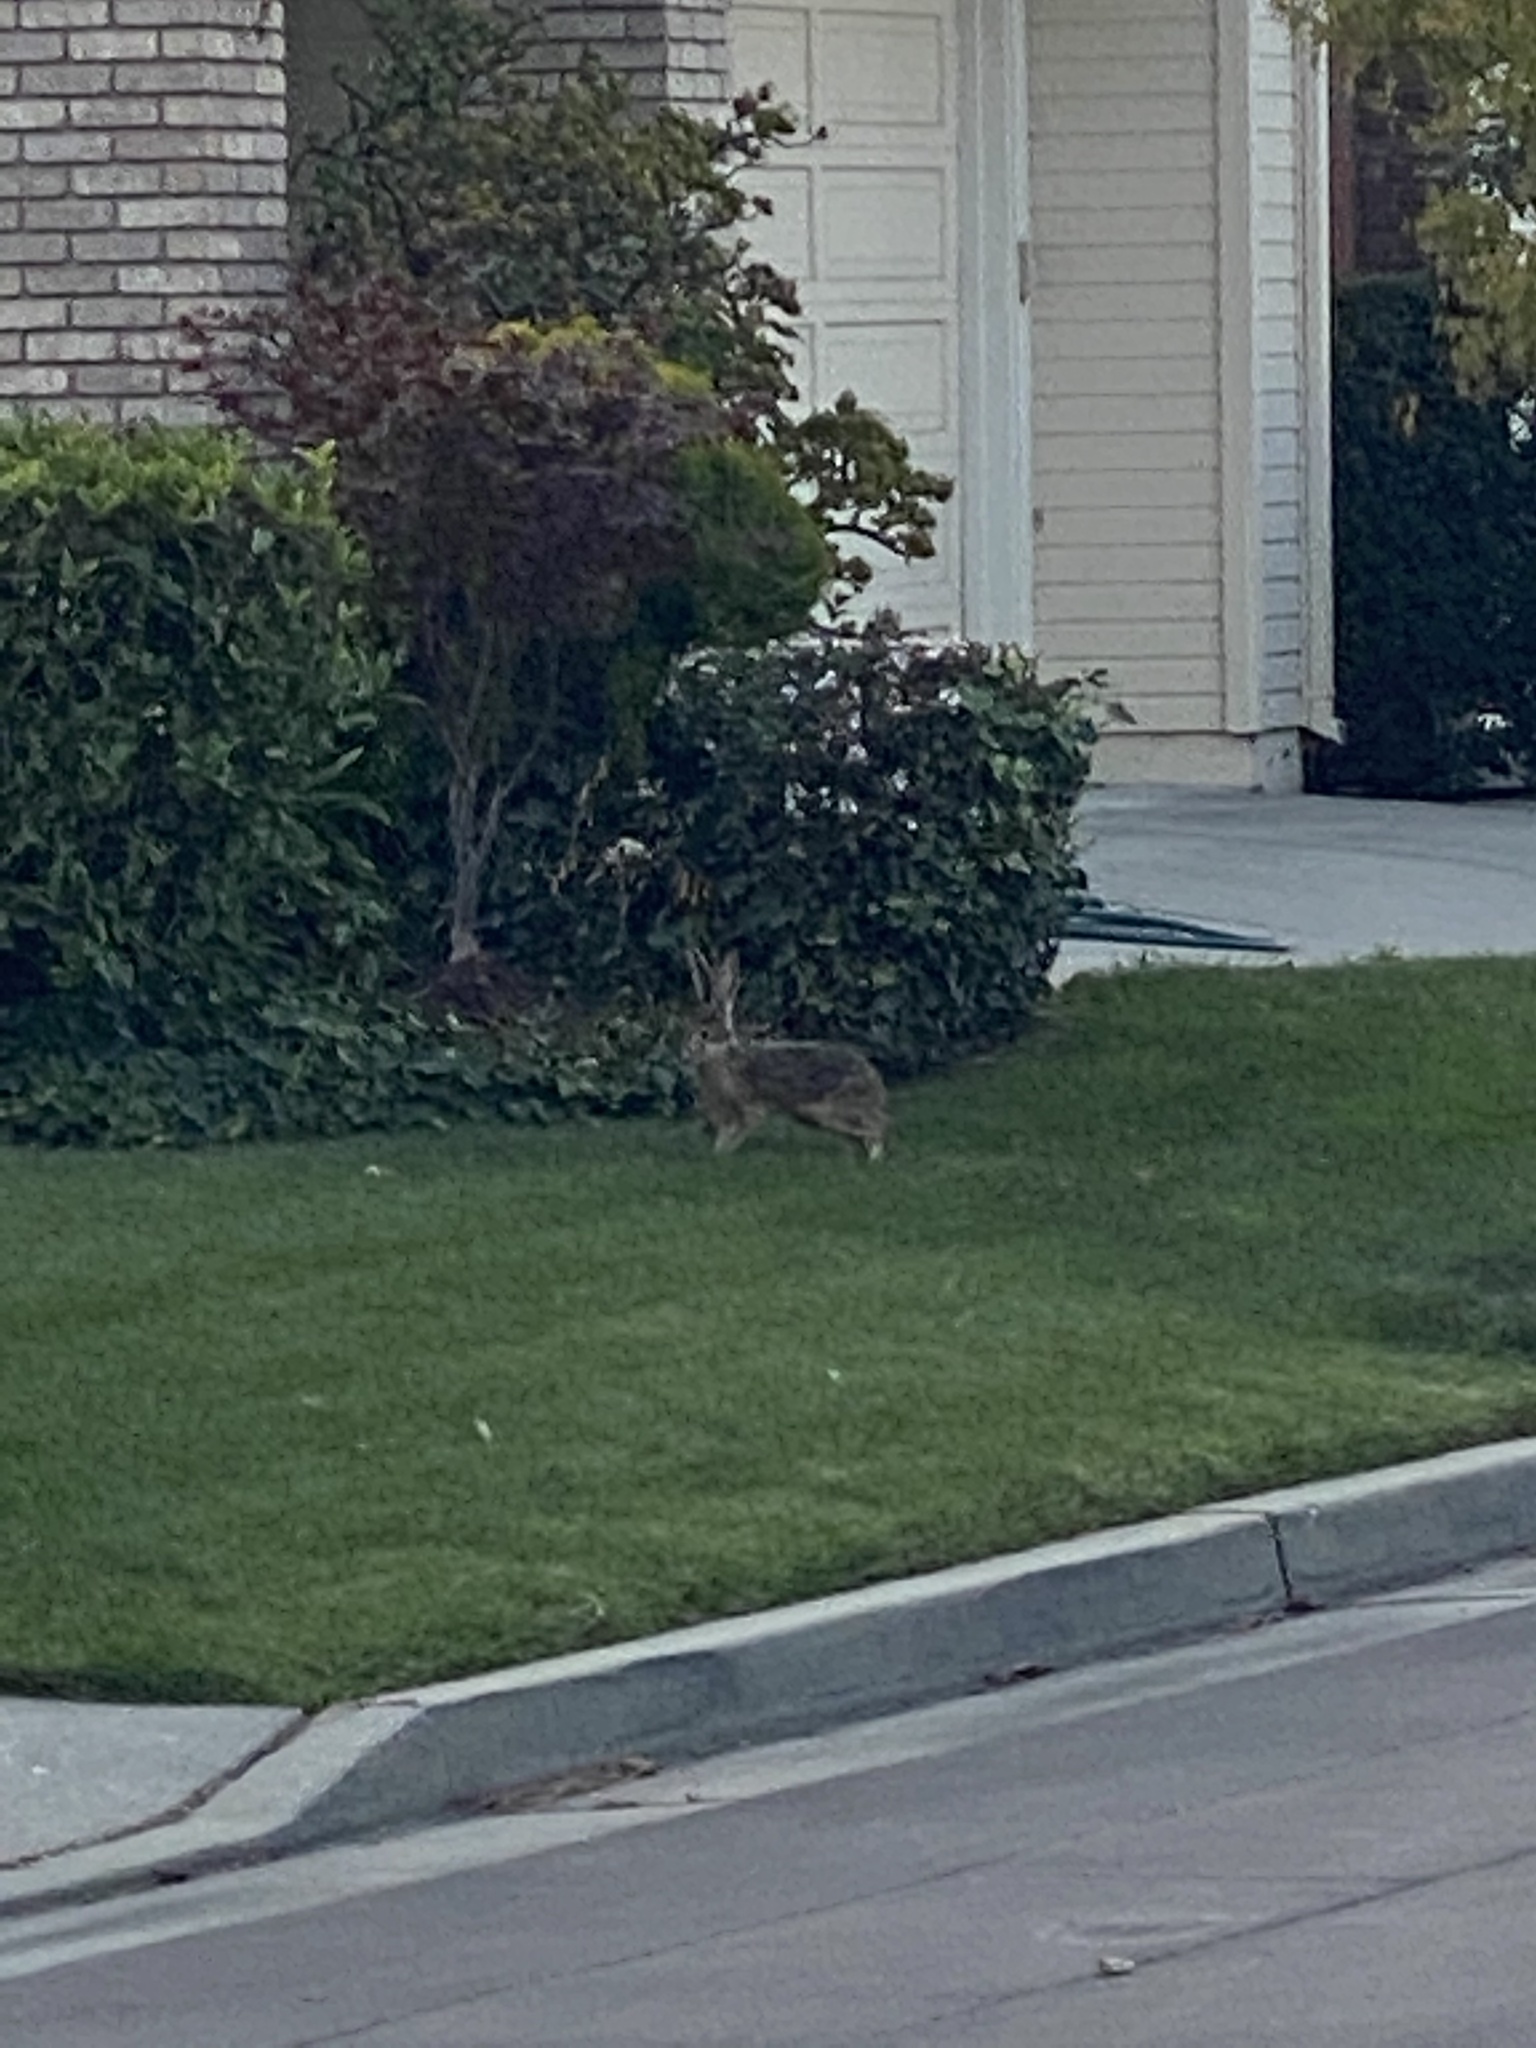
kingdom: Animalia
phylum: Chordata
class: Mammalia
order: Lagomorpha
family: Leporidae
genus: Lepus
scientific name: Lepus californicus
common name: Black-tailed jackrabbit
